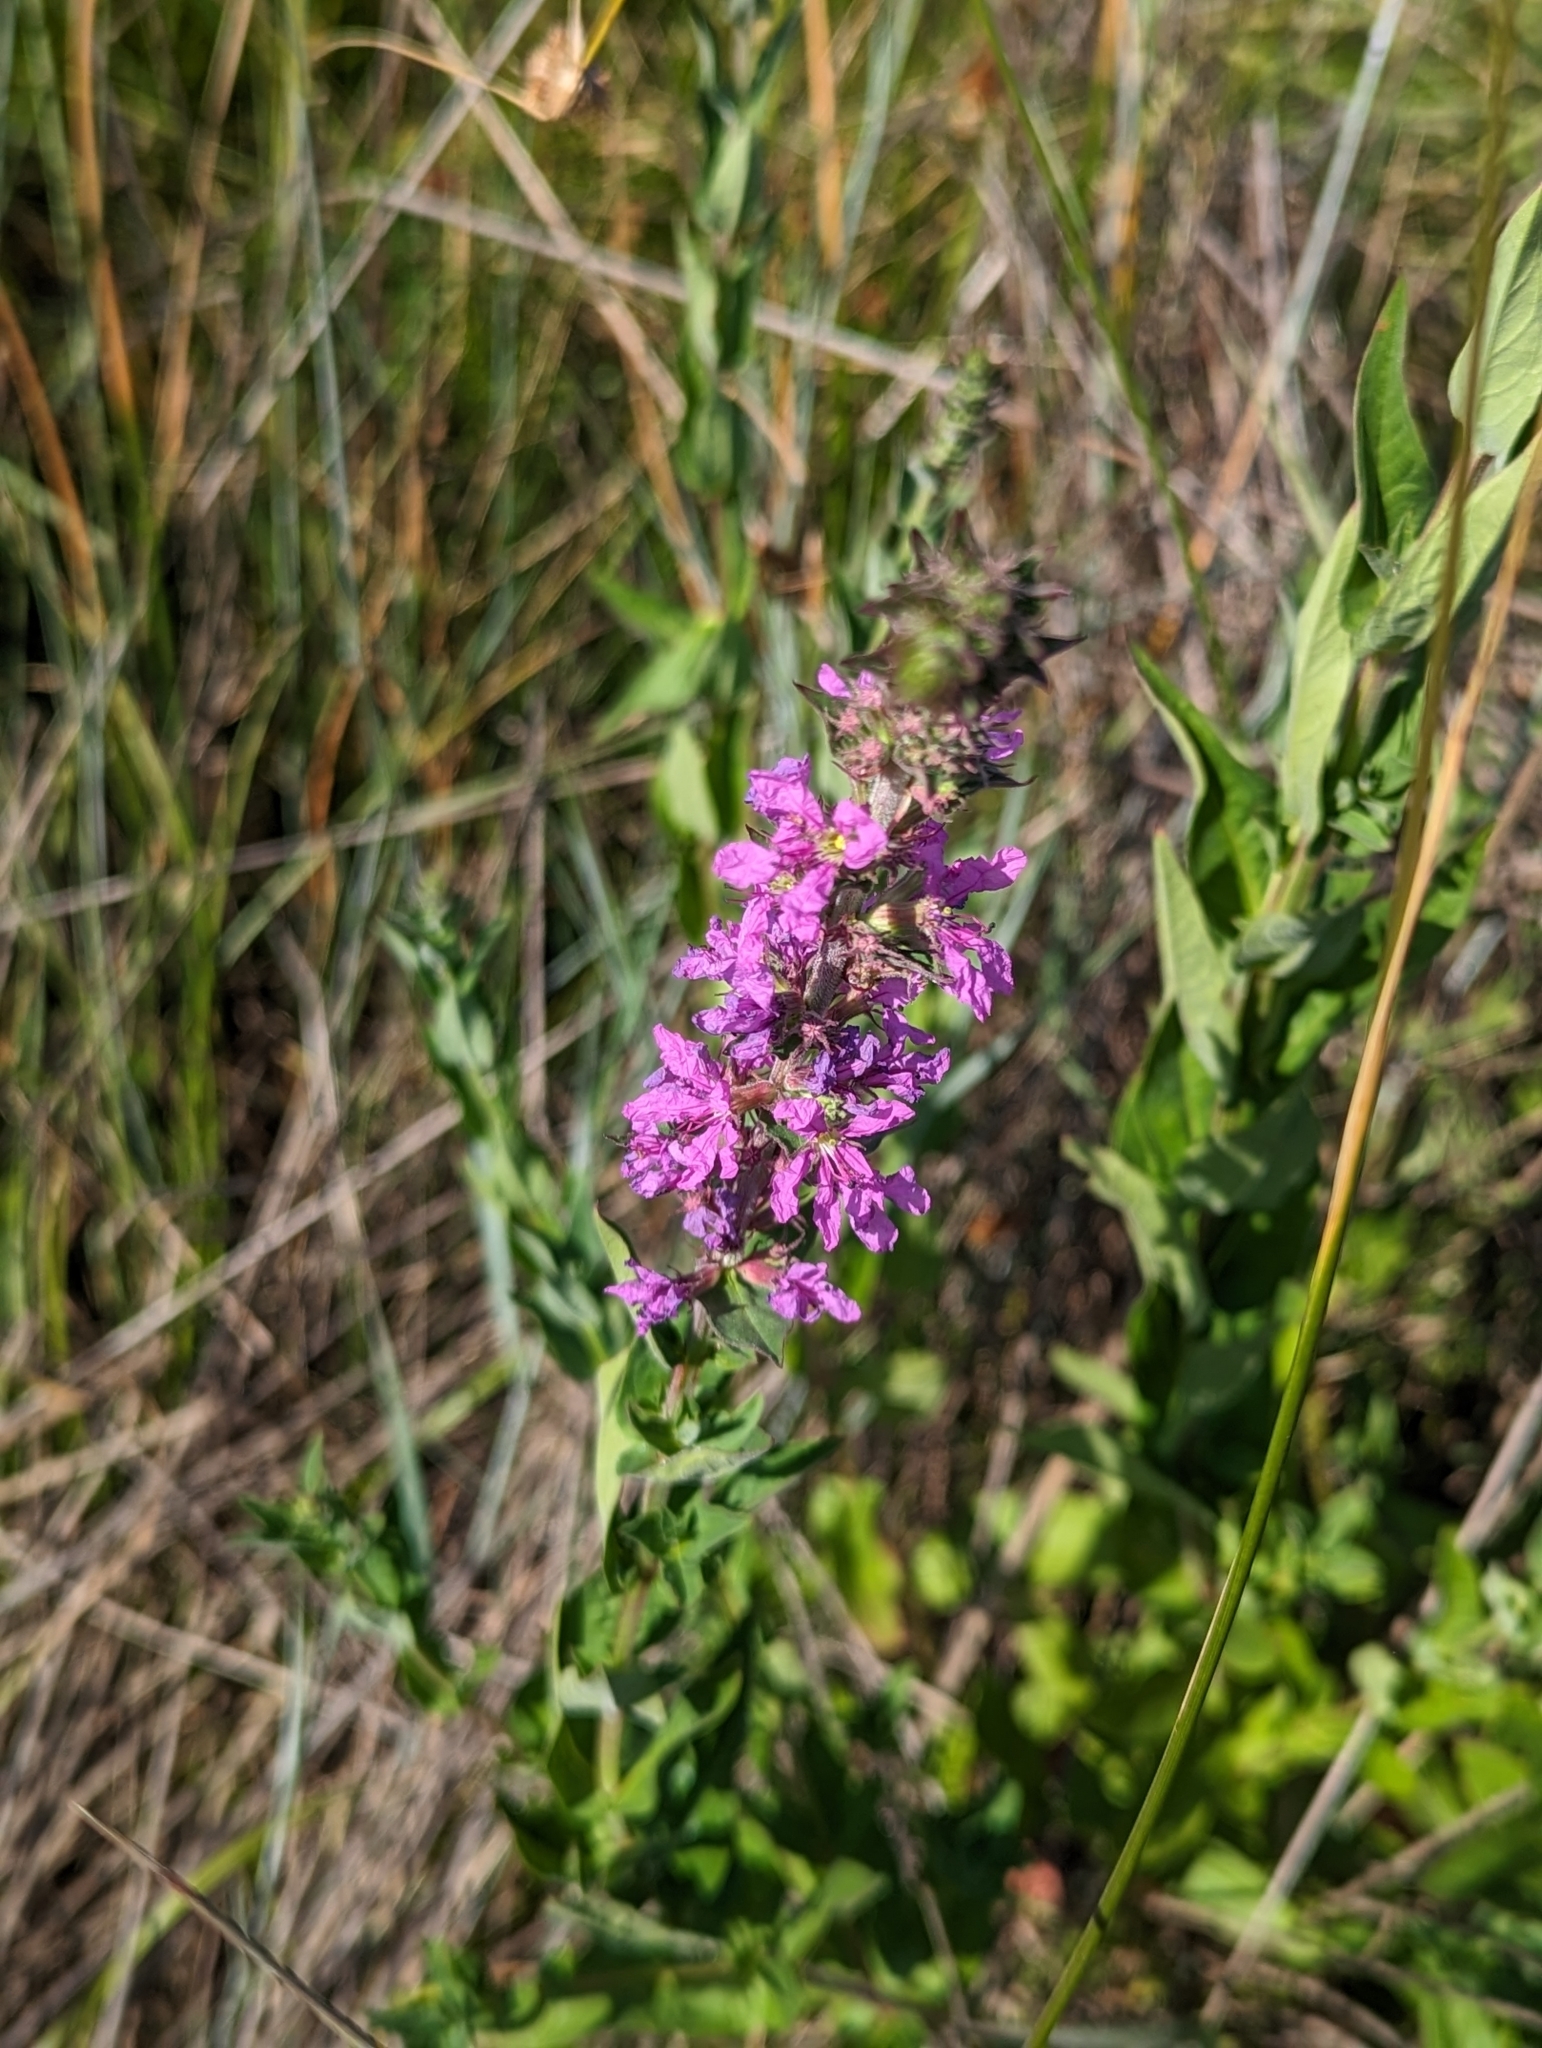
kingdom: Plantae
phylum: Tracheophyta
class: Magnoliopsida
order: Myrtales
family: Lythraceae
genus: Lythrum
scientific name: Lythrum salicaria
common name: Purple loosestrife
